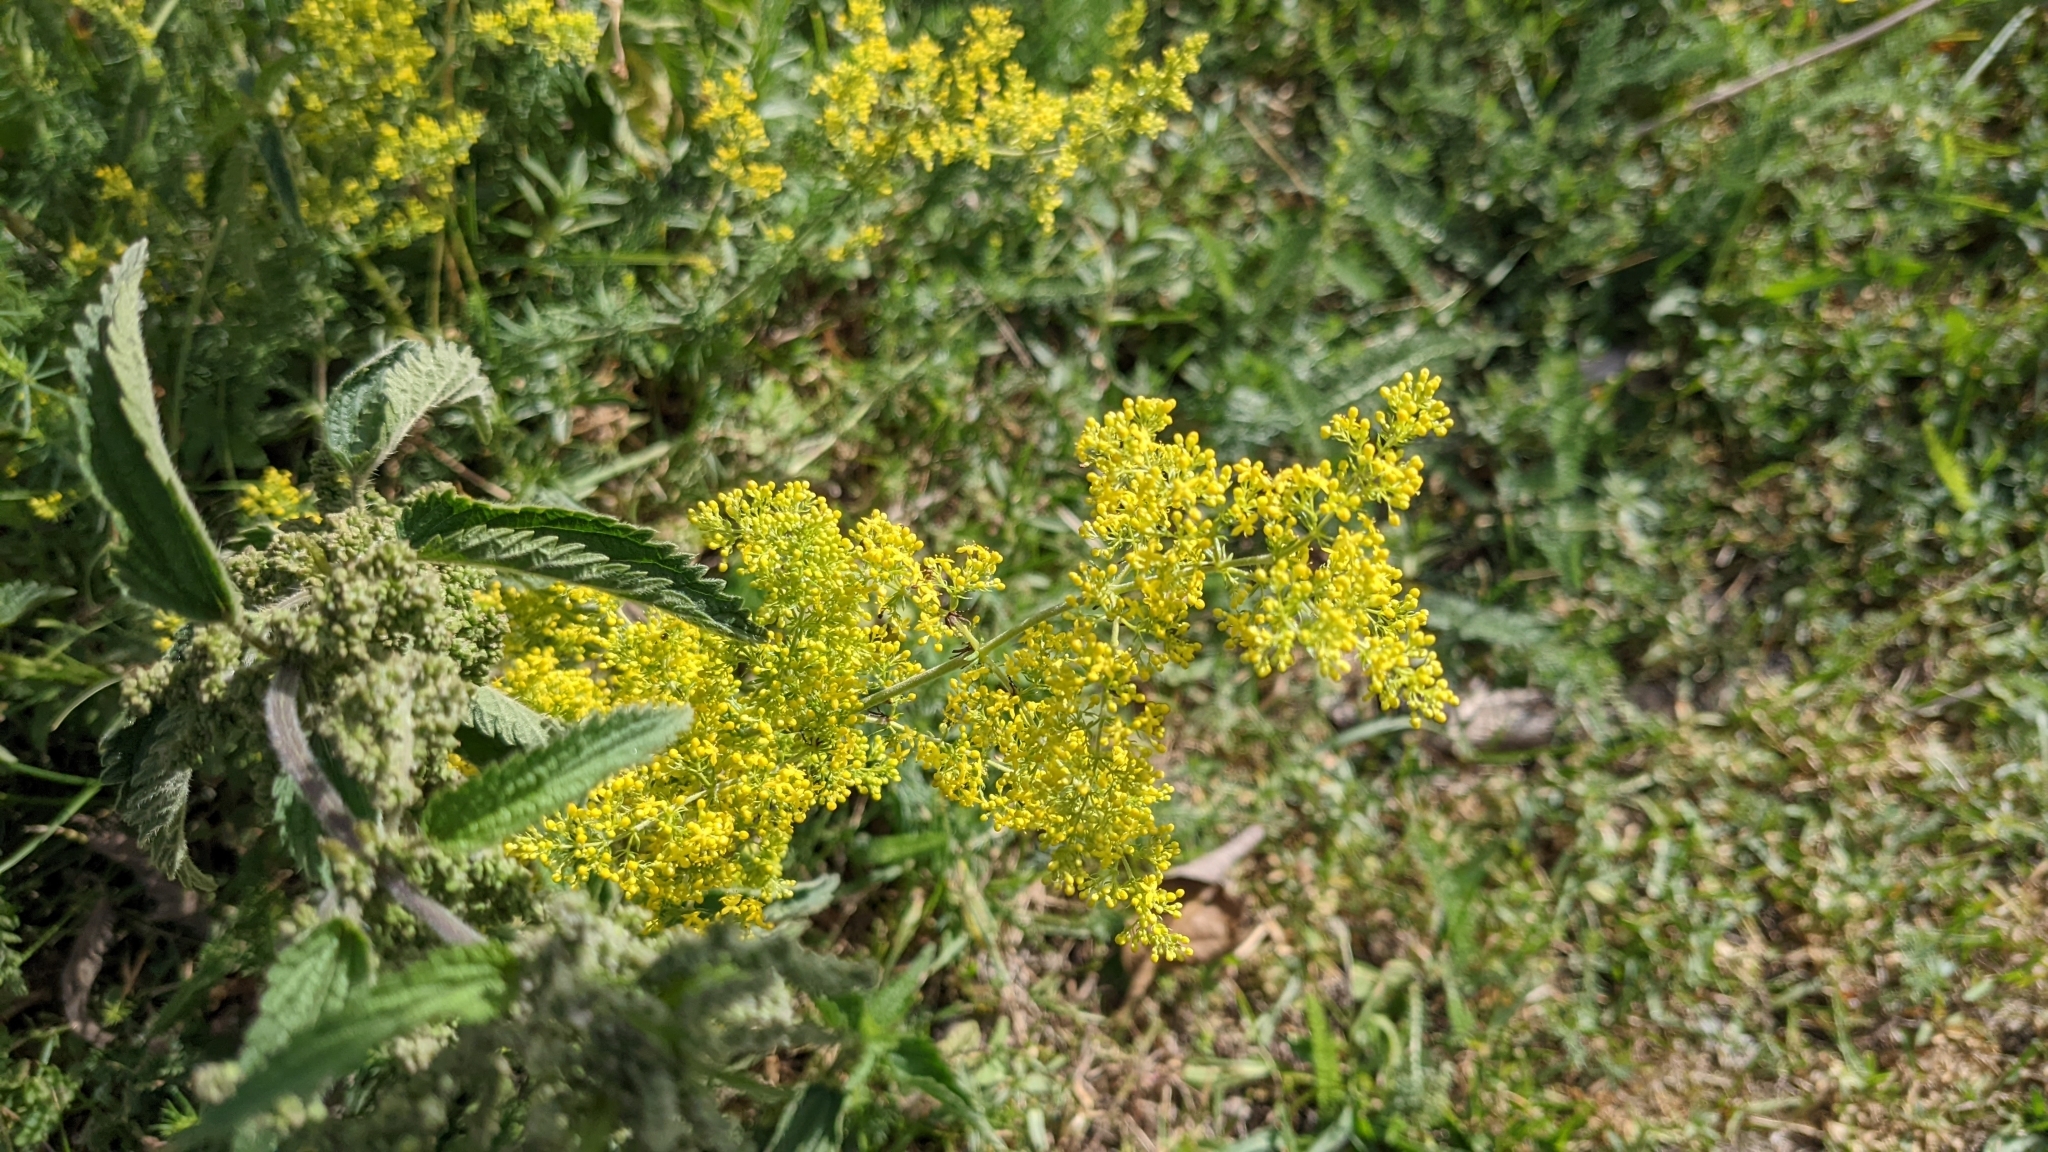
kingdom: Plantae
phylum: Tracheophyta
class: Magnoliopsida
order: Gentianales
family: Rubiaceae
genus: Galium
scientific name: Galium verum
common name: Lady's bedstraw
